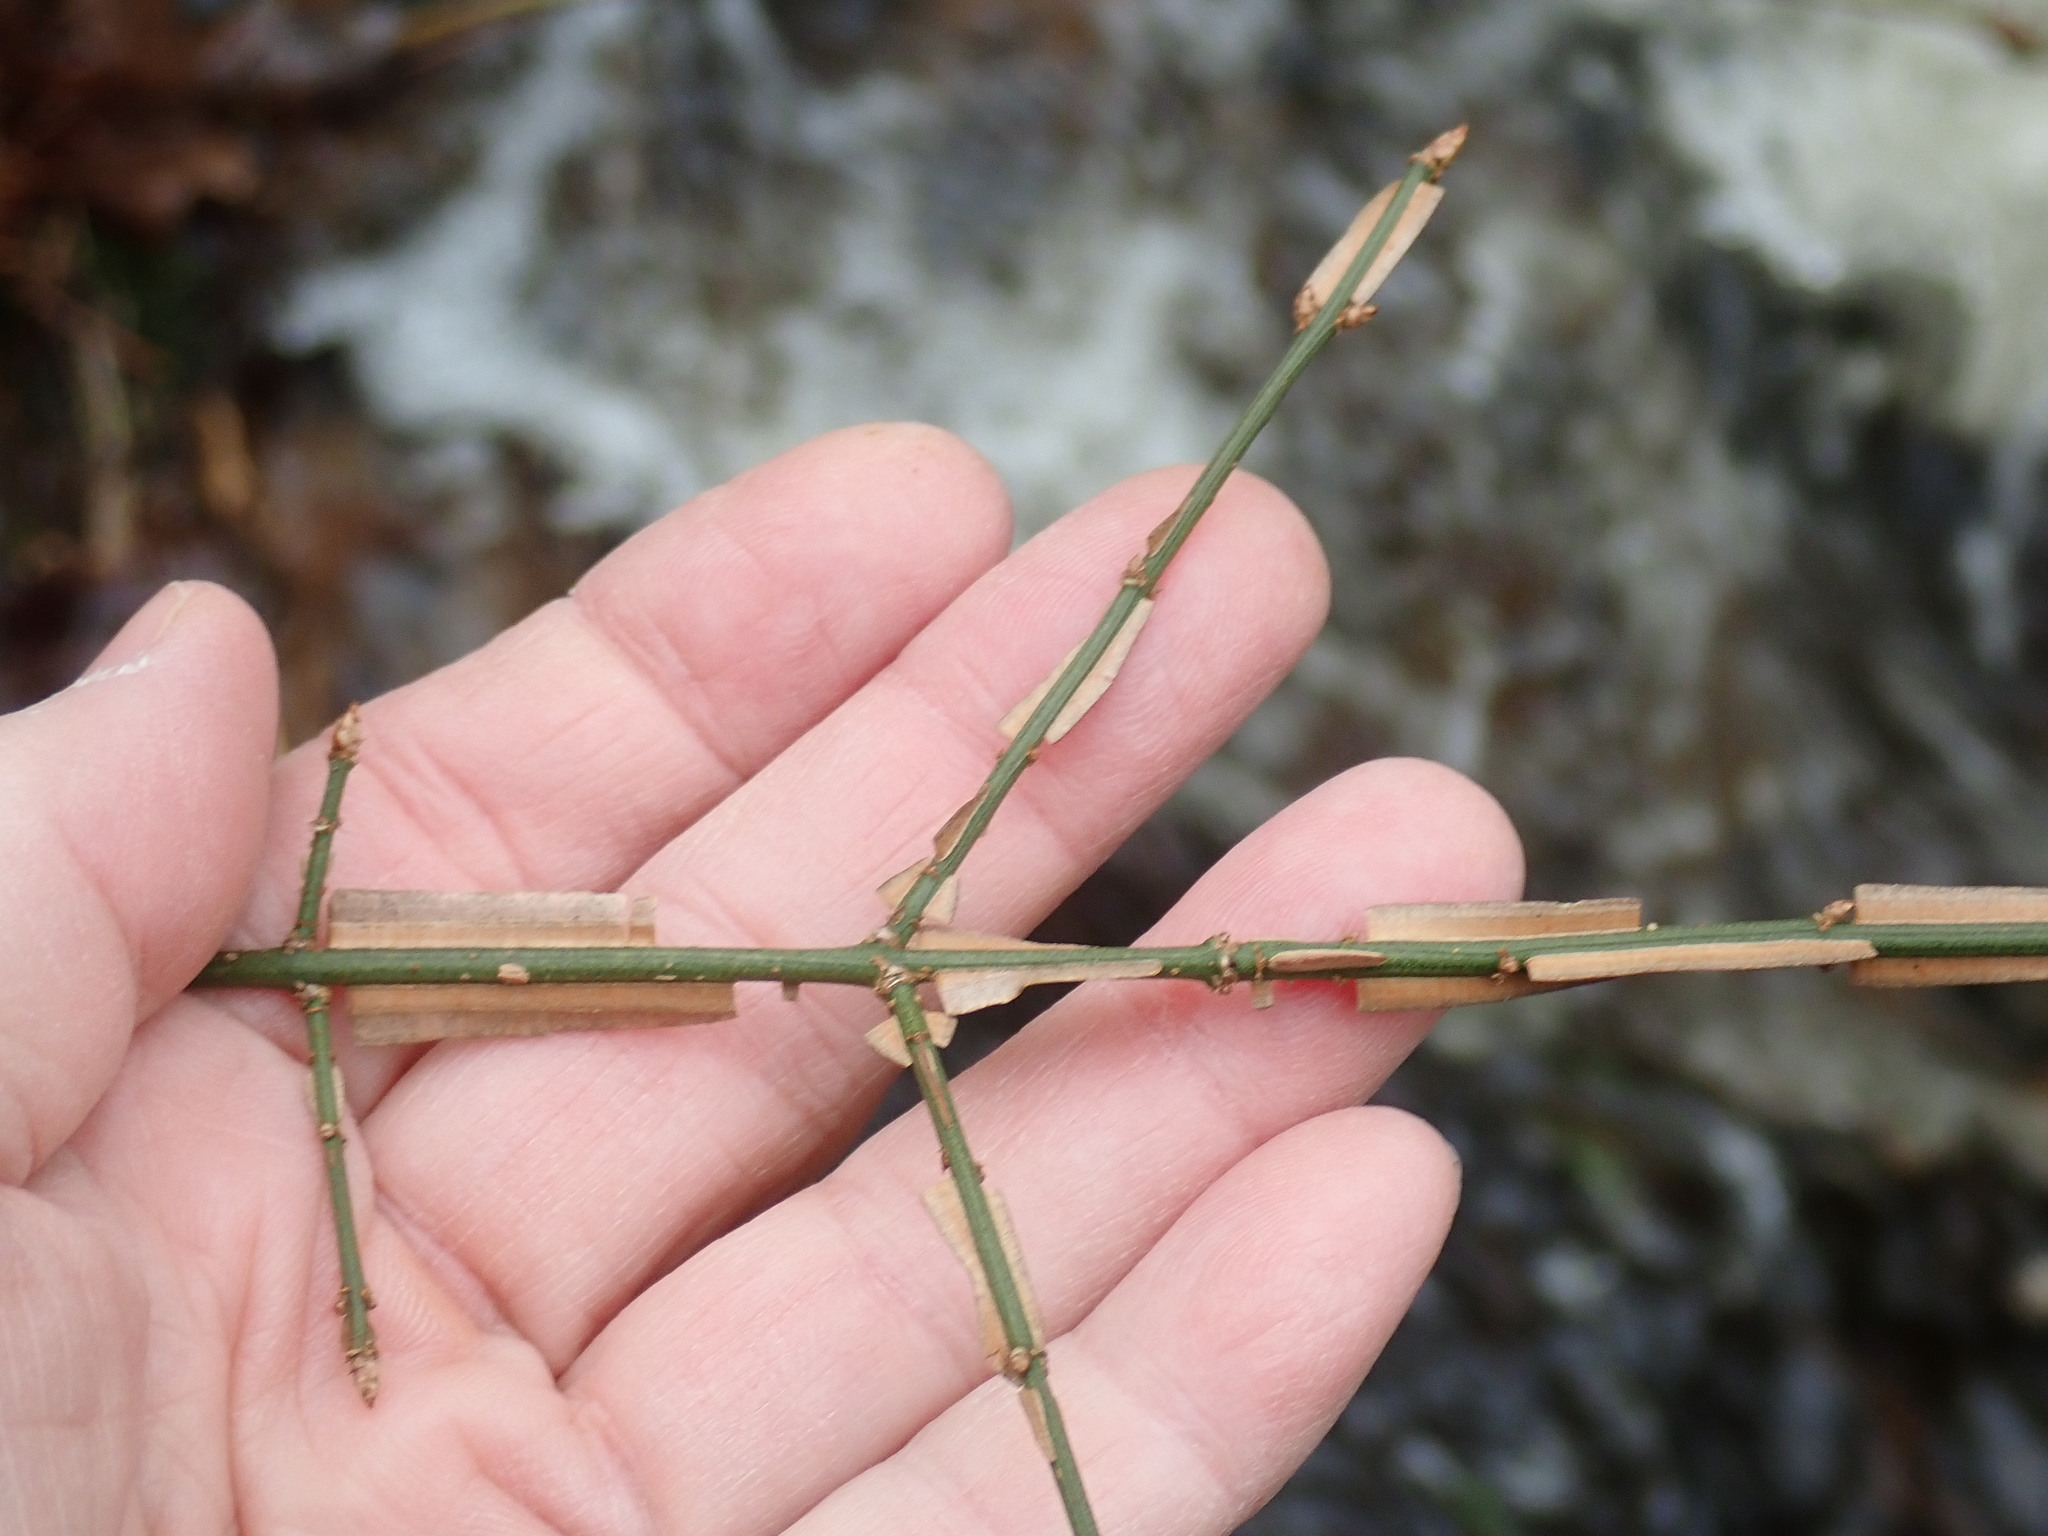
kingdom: Plantae
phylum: Tracheophyta
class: Magnoliopsida
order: Celastrales
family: Celastraceae
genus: Euonymus
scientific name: Euonymus alatus
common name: Winged euonymus
